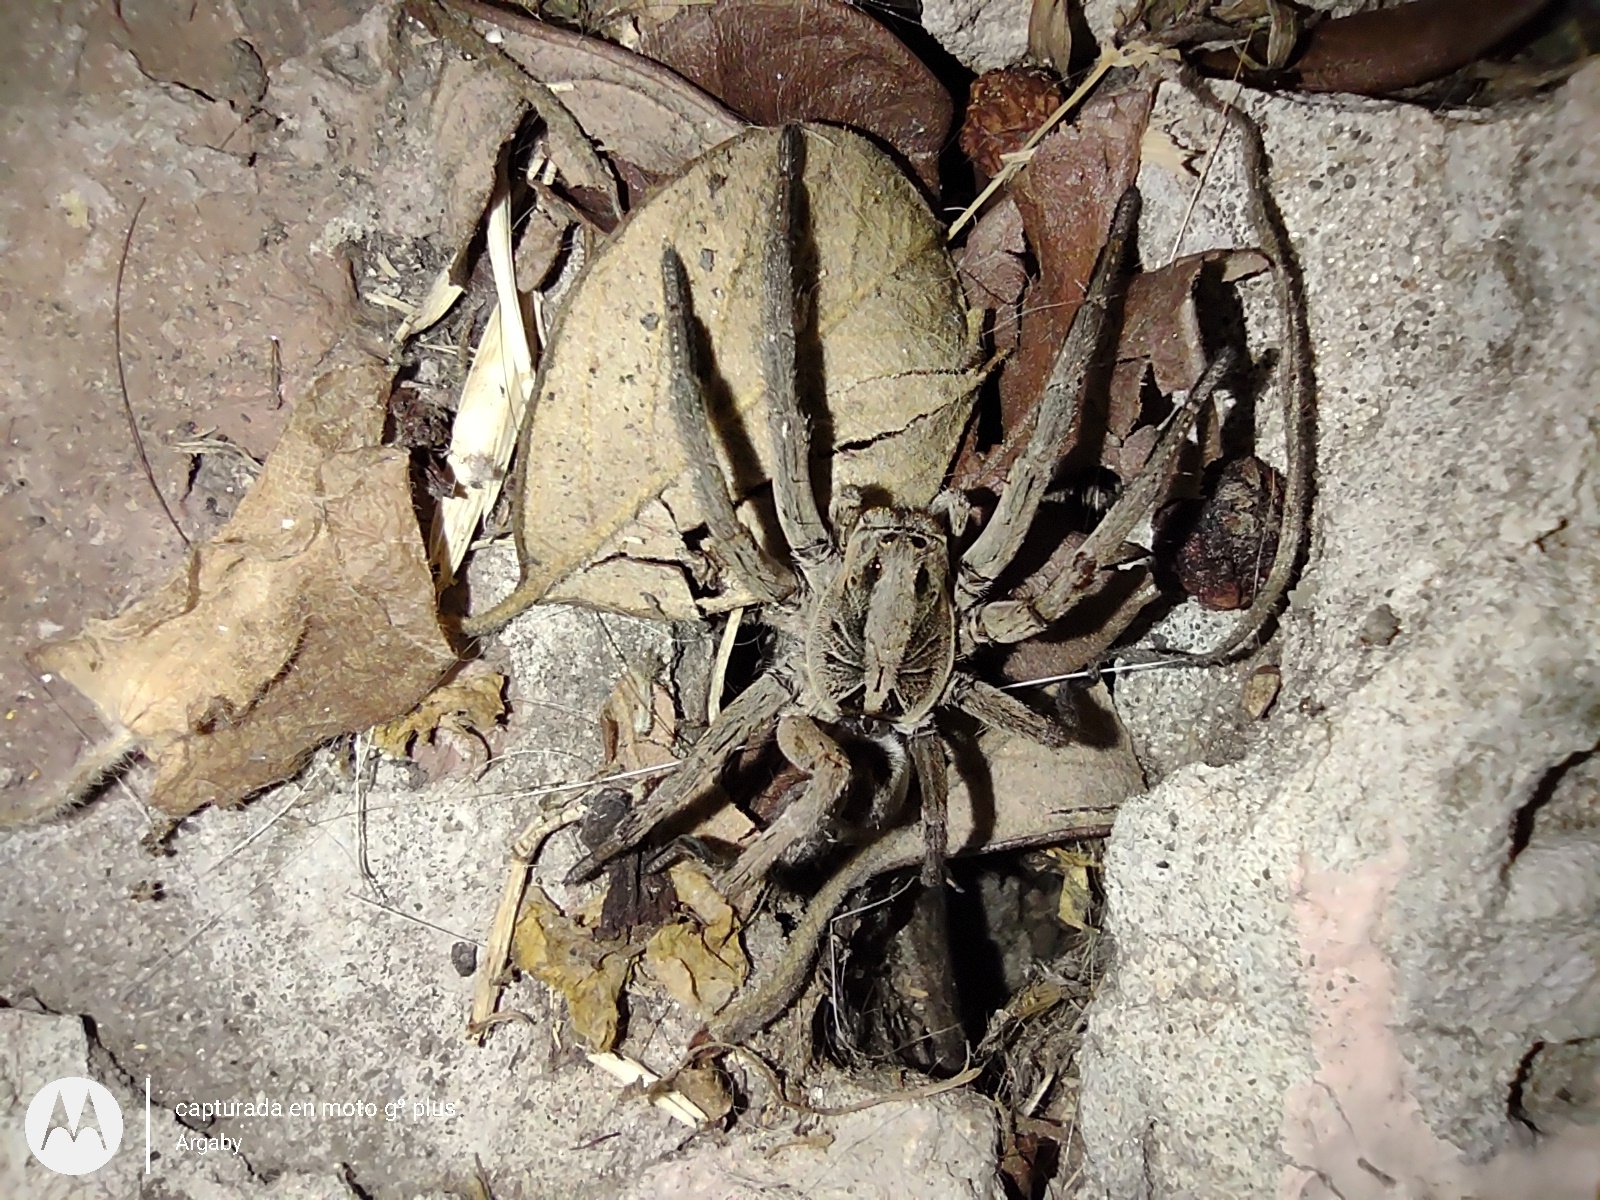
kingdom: Animalia
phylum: Arthropoda
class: Arachnida
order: Araneae
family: Lycosidae
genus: Lycosa
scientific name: Lycosa erythrognatha
